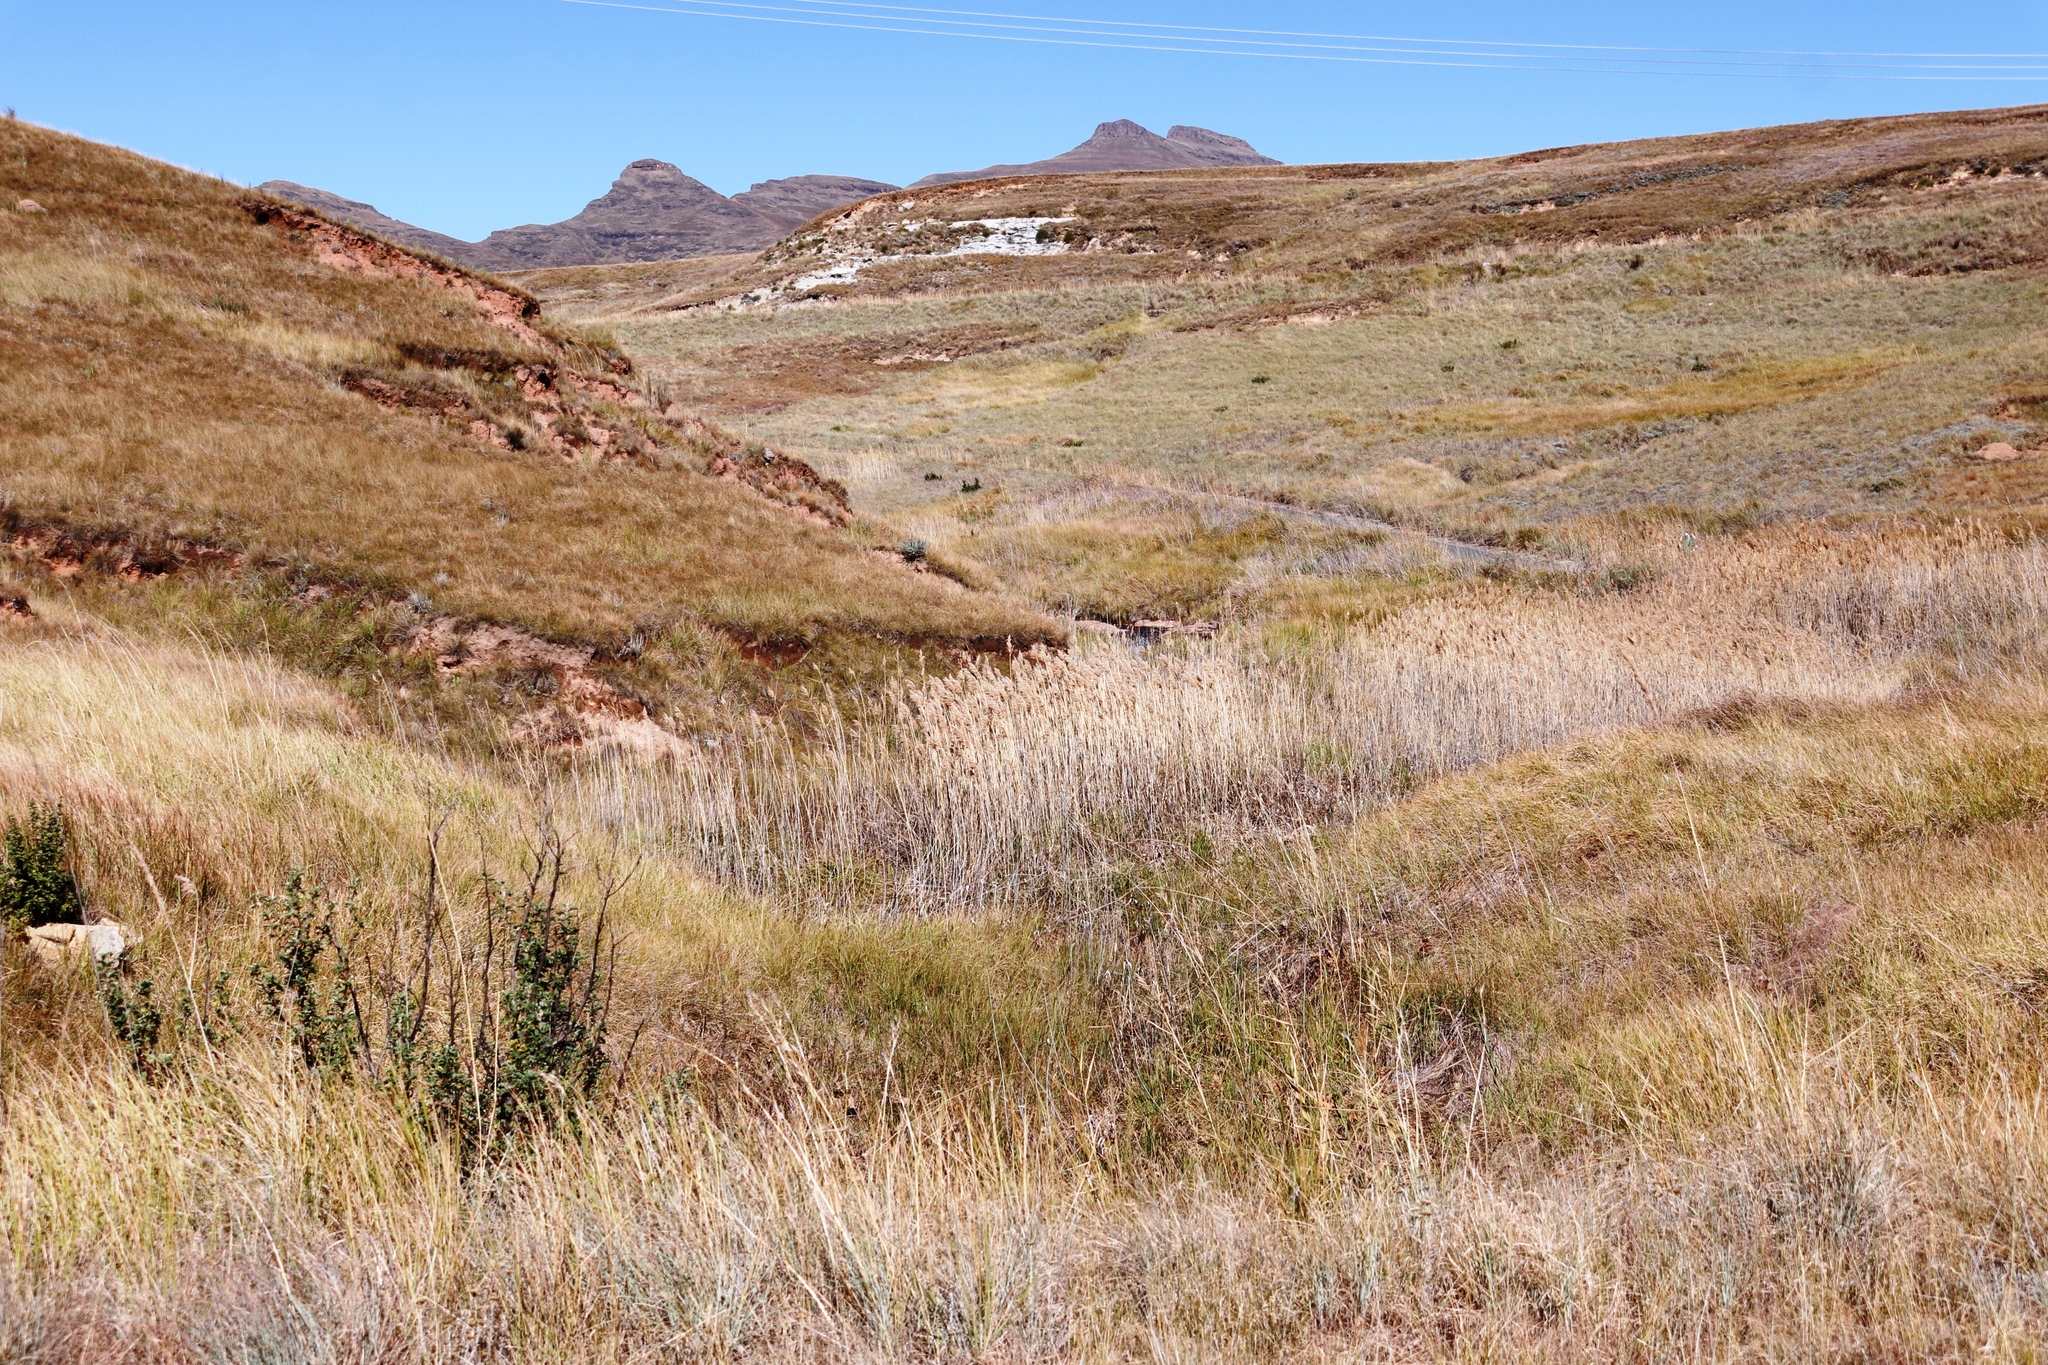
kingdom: Plantae
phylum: Tracheophyta
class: Liliopsida
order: Poales
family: Poaceae
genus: Phragmites
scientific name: Phragmites australis
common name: Common reed
